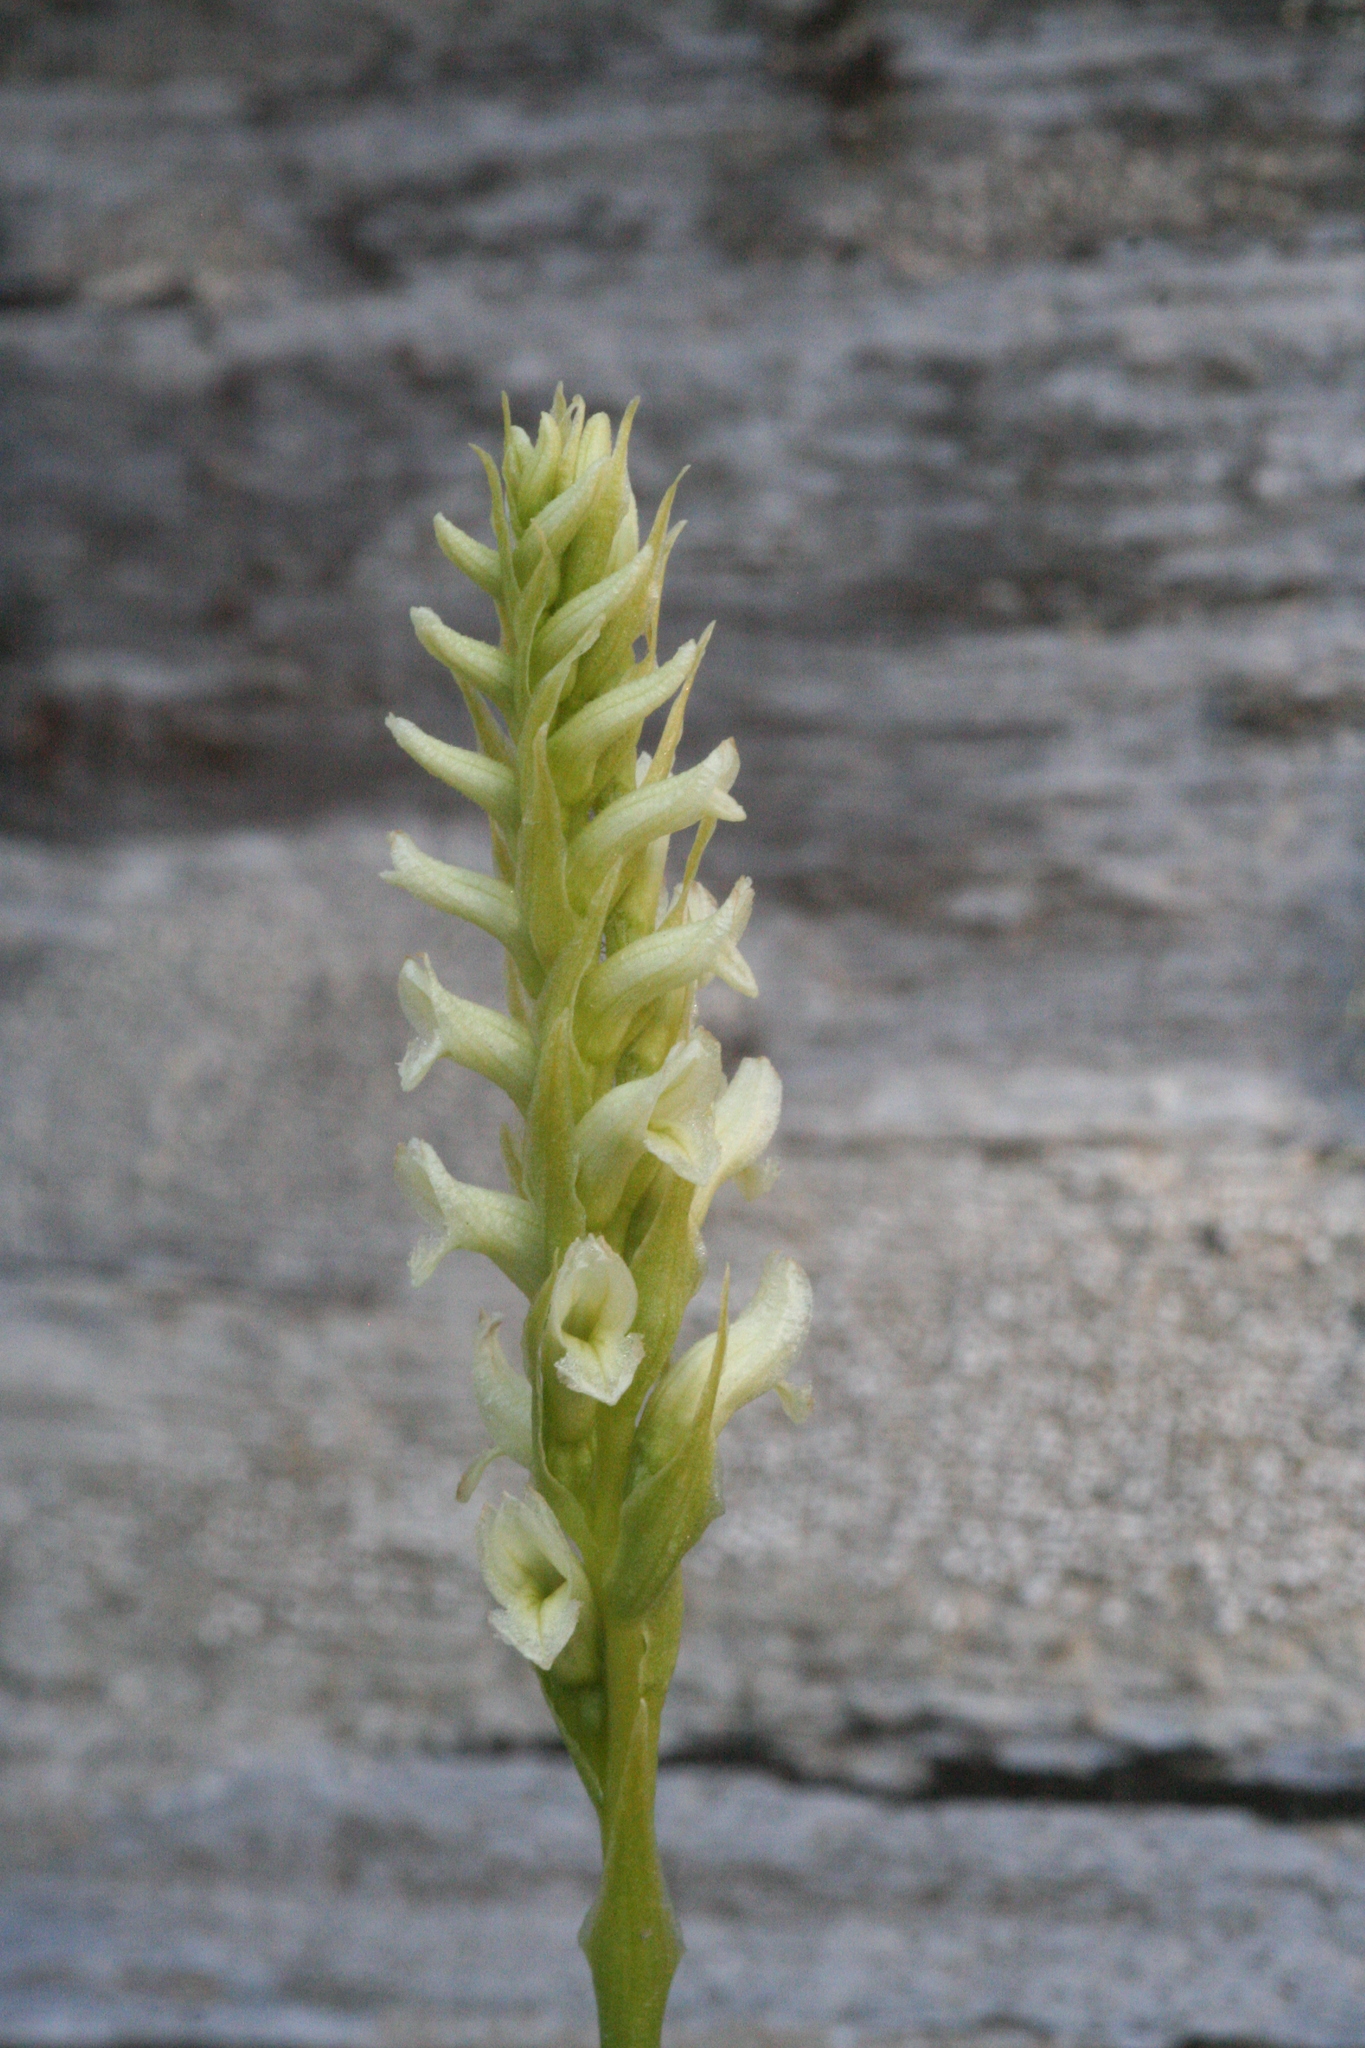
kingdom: Plantae
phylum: Tracheophyta
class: Liliopsida
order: Asparagales
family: Orchidaceae
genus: Spiranthes
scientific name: Spiranthes romanzoffiana
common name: Irish lady's-tresses
